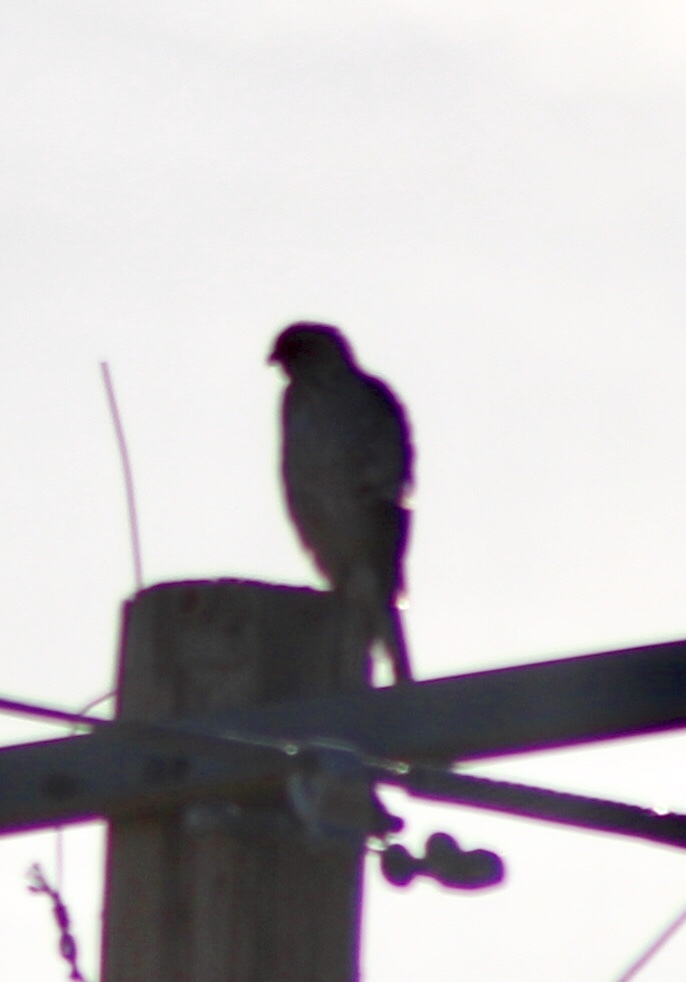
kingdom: Animalia
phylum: Chordata
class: Aves
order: Accipitriformes
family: Accipitridae
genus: Accipiter
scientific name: Accipiter
